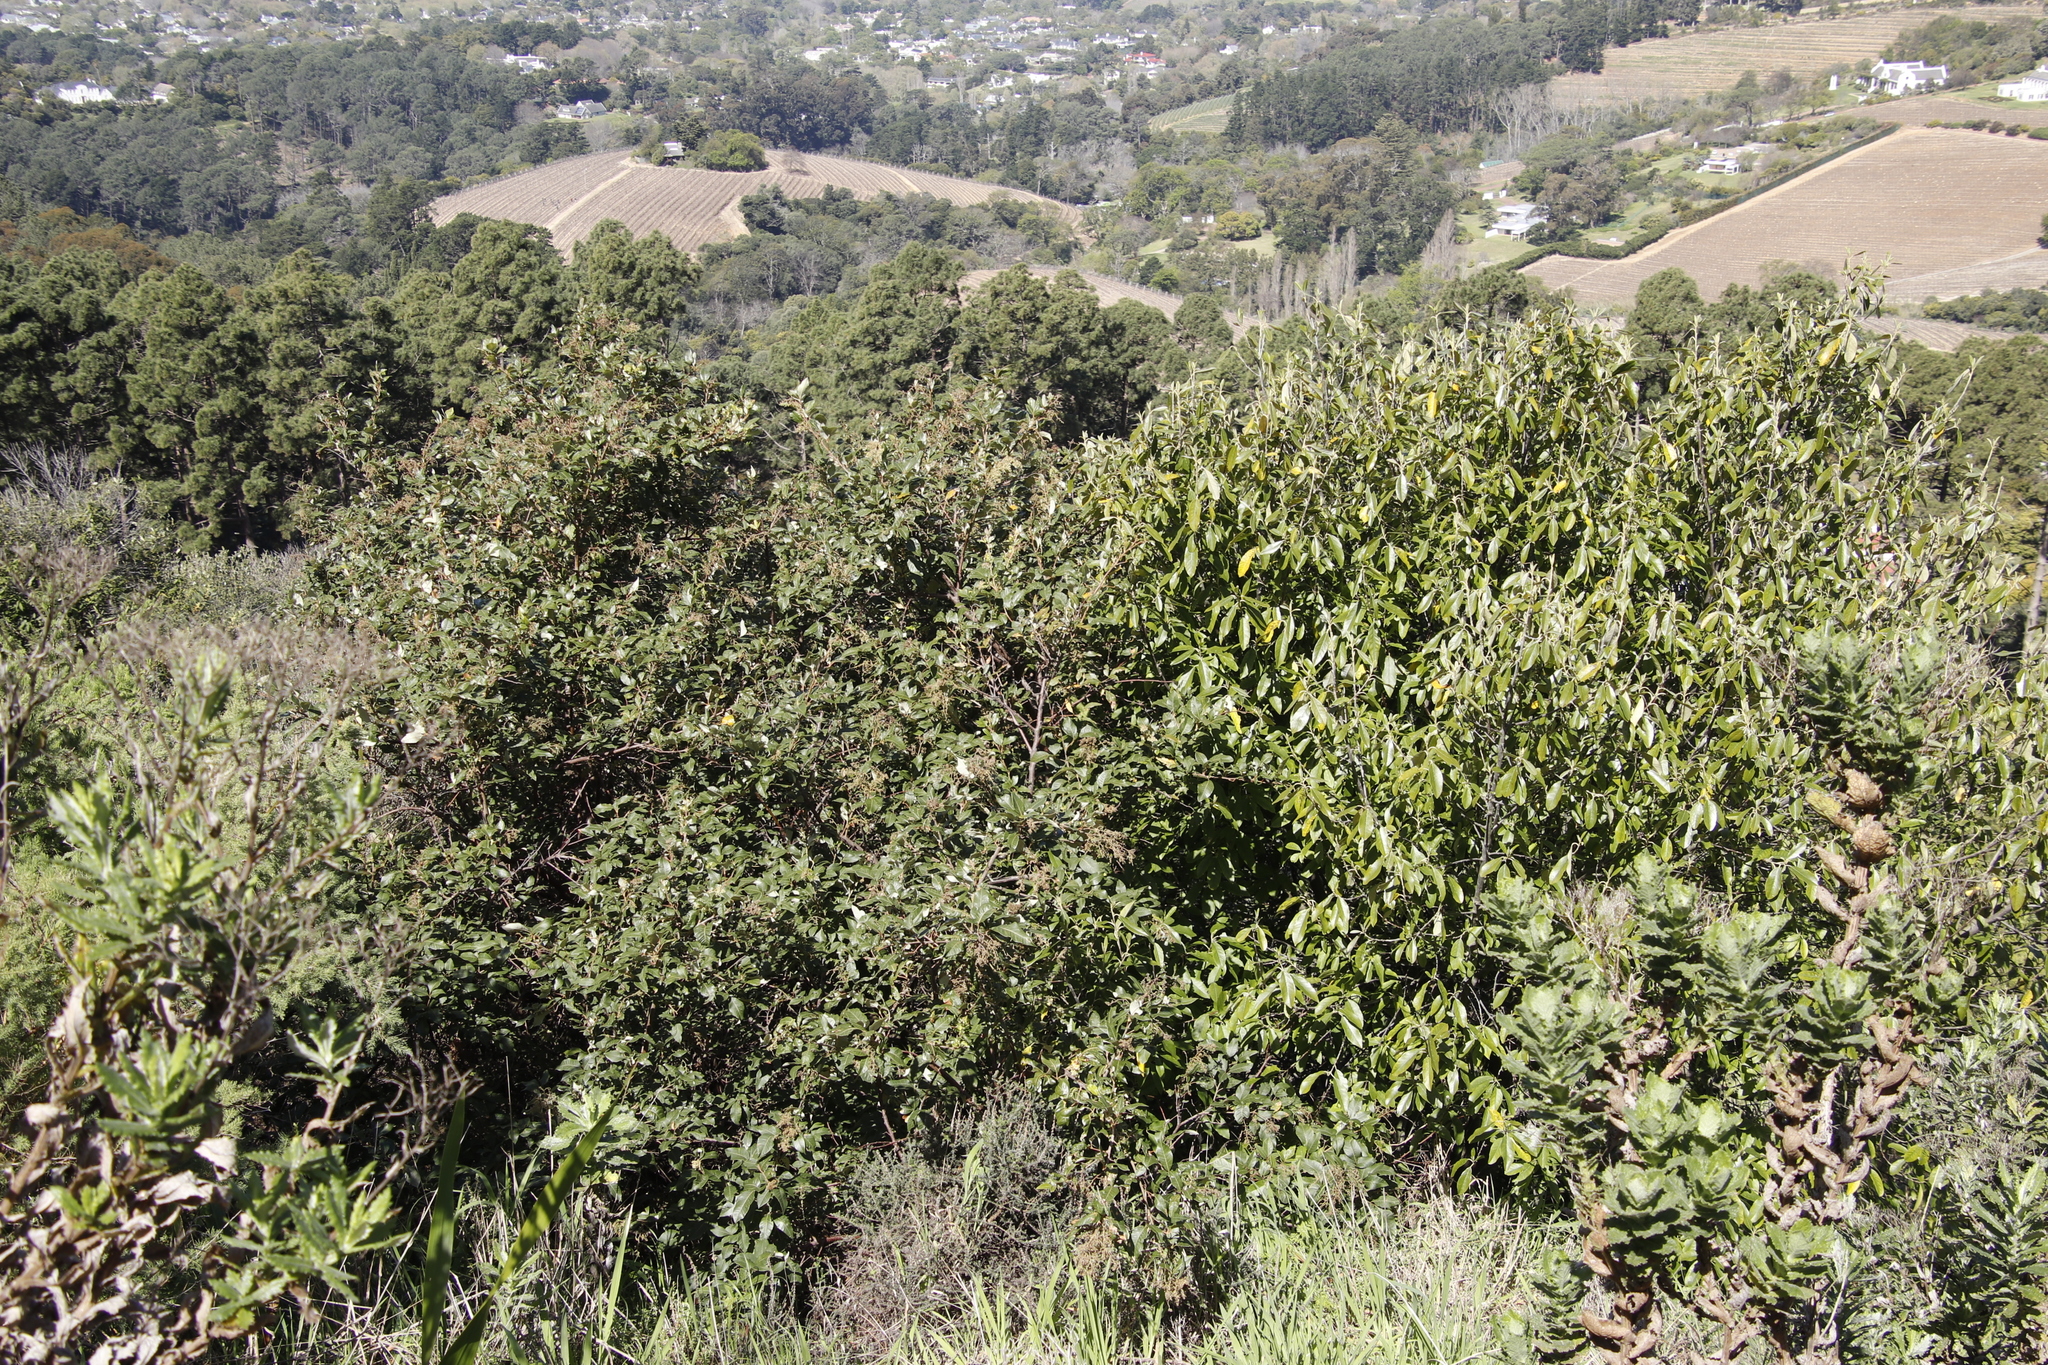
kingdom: Plantae
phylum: Tracheophyta
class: Magnoliopsida
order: Malpighiales
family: Achariaceae
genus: Kiggelaria
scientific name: Kiggelaria africana
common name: Wild peach
